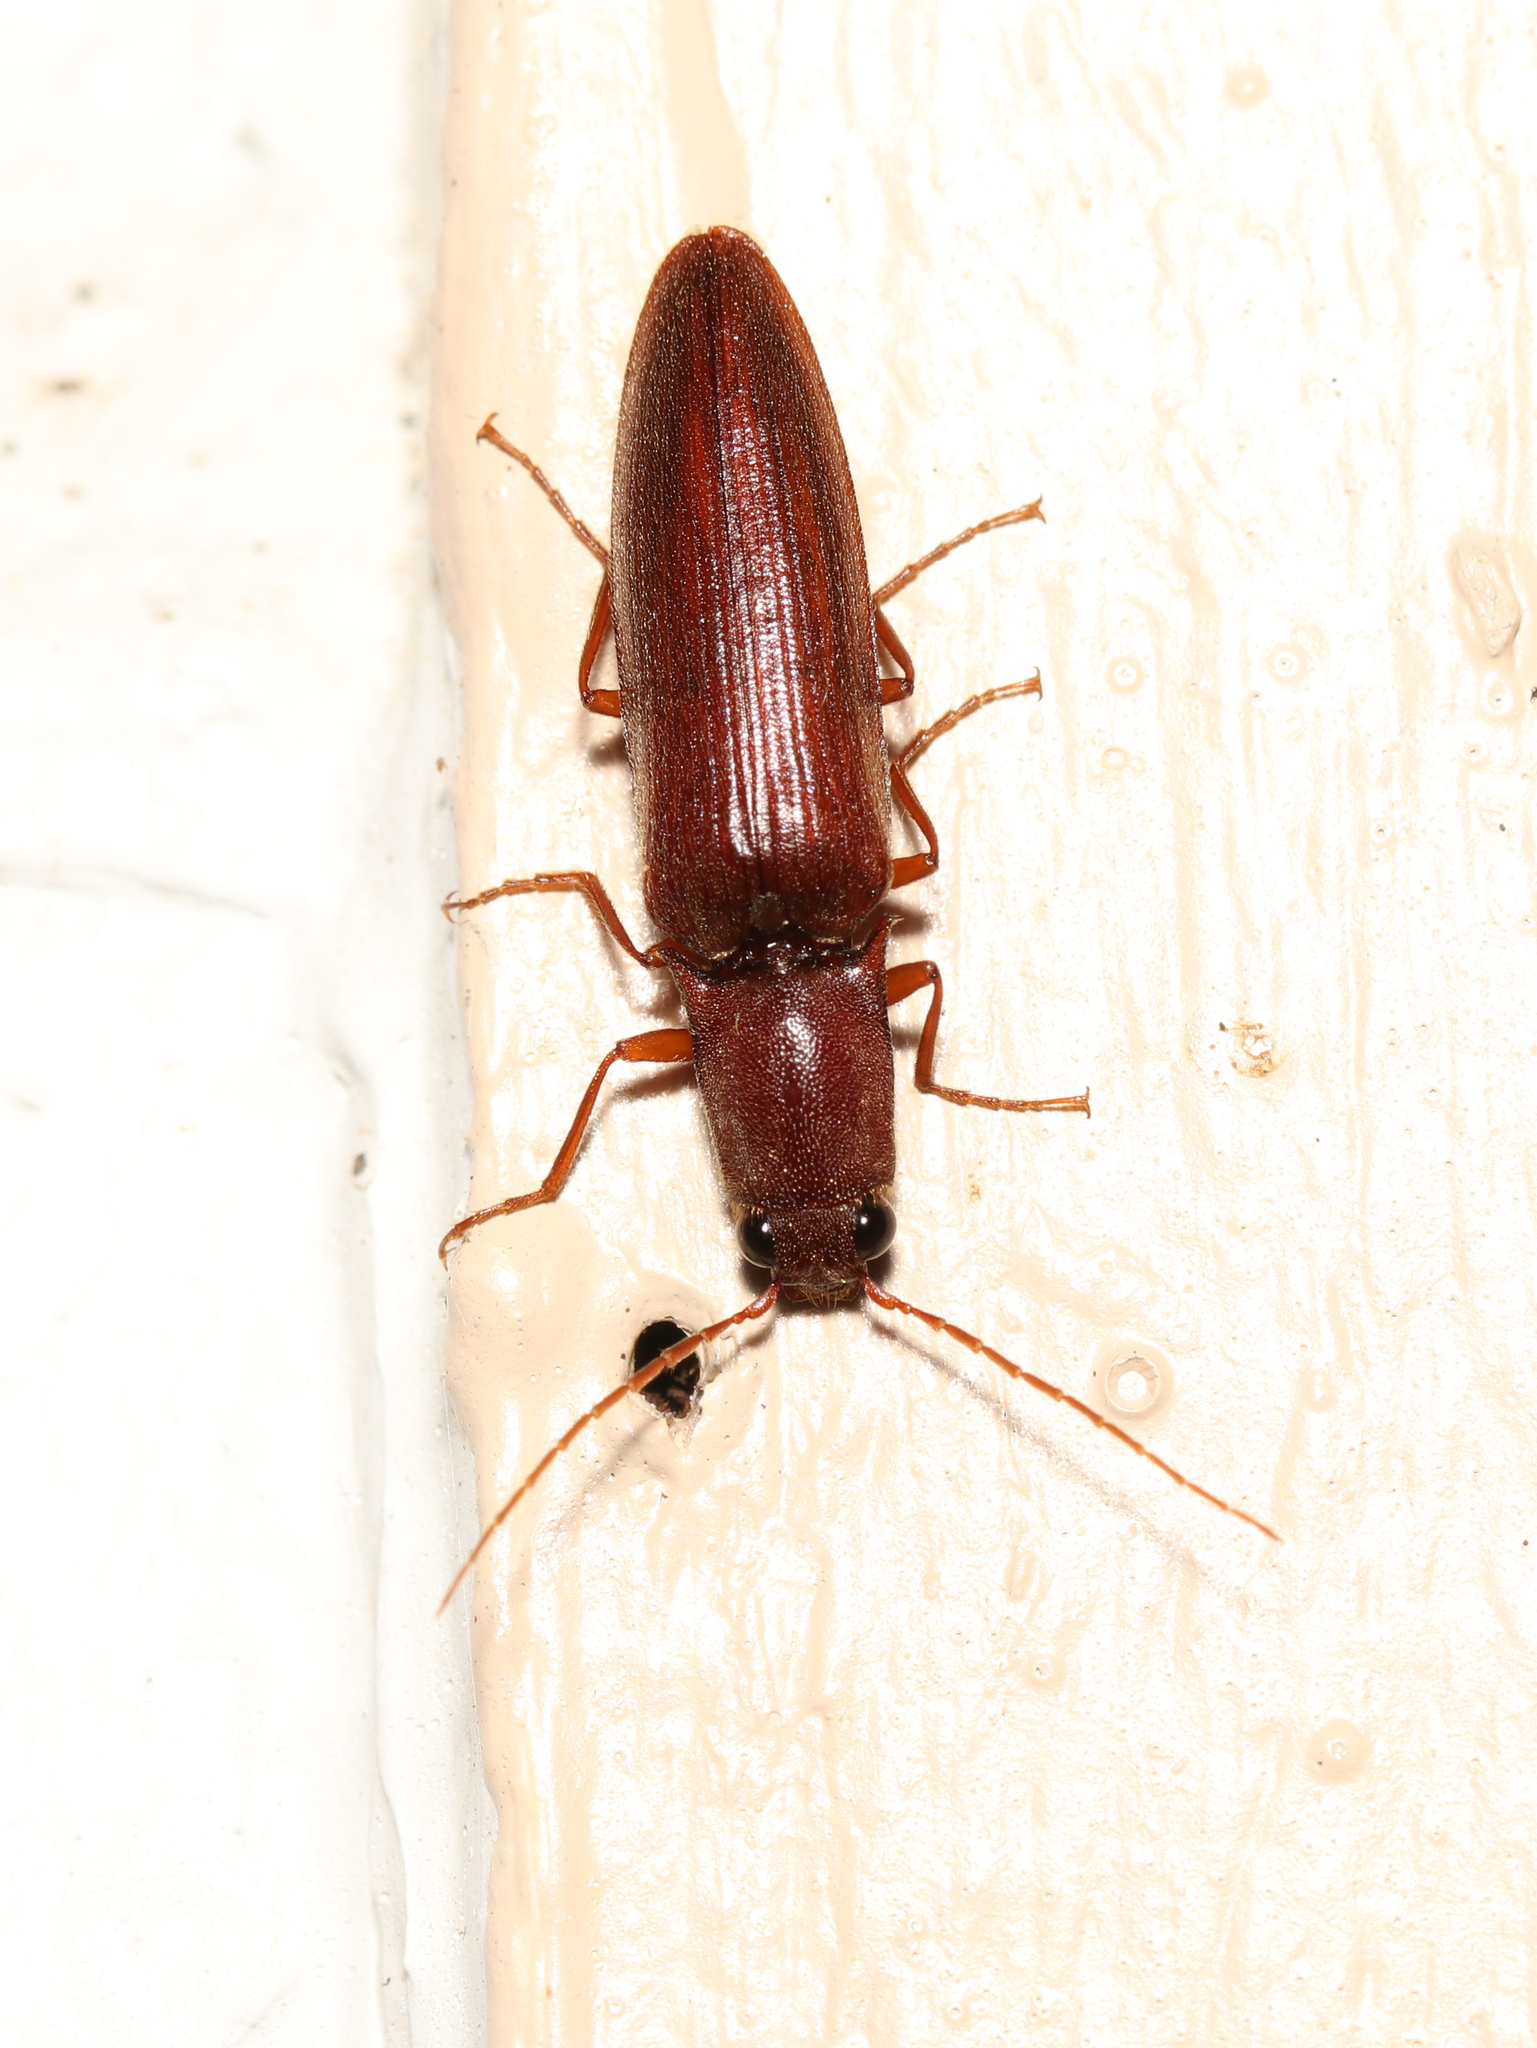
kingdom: Animalia
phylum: Arthropoda
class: Insecta
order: Coleoptera
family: Elateridae
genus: Proludius
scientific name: Proludius pyrros
